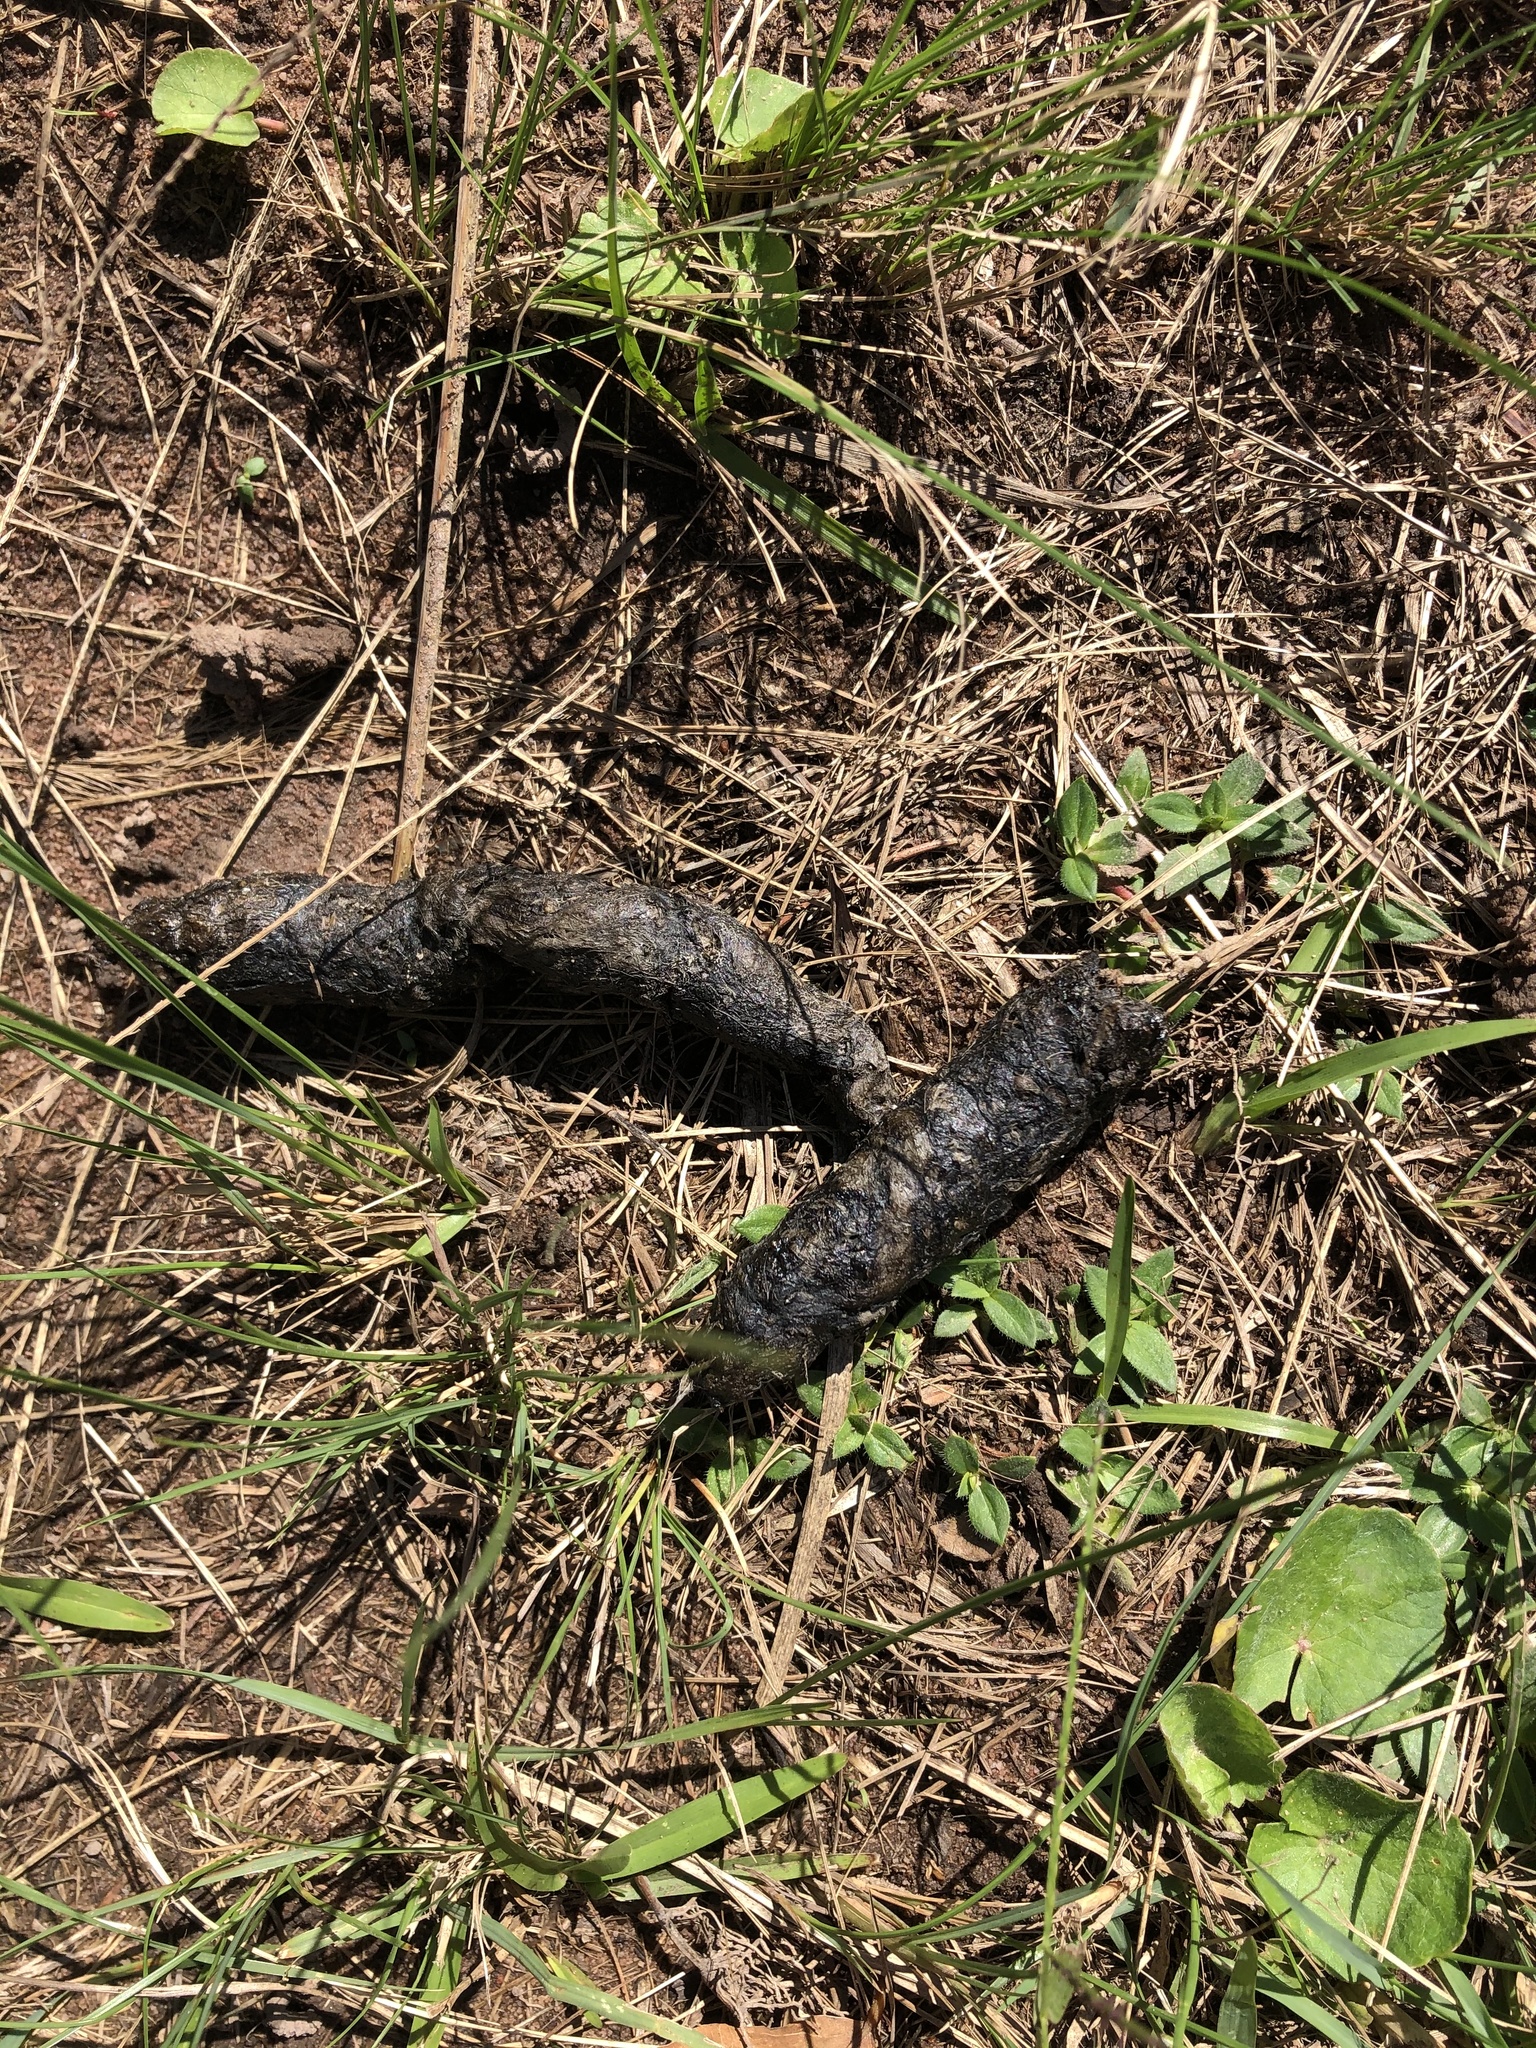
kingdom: Animalia
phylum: Chordata
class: Mammalia
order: Carnivora
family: Herpestidae
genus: Atilax
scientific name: Atilax paludinosus
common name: Marsh mongoose
